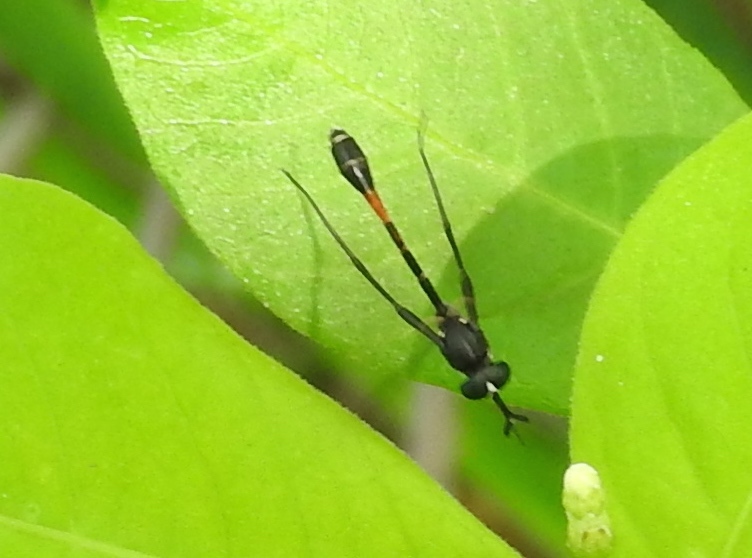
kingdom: Animalia
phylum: Arthropoda
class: Insecta
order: Diptera
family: Bombyliidae
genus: Systropus
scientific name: Systropus
